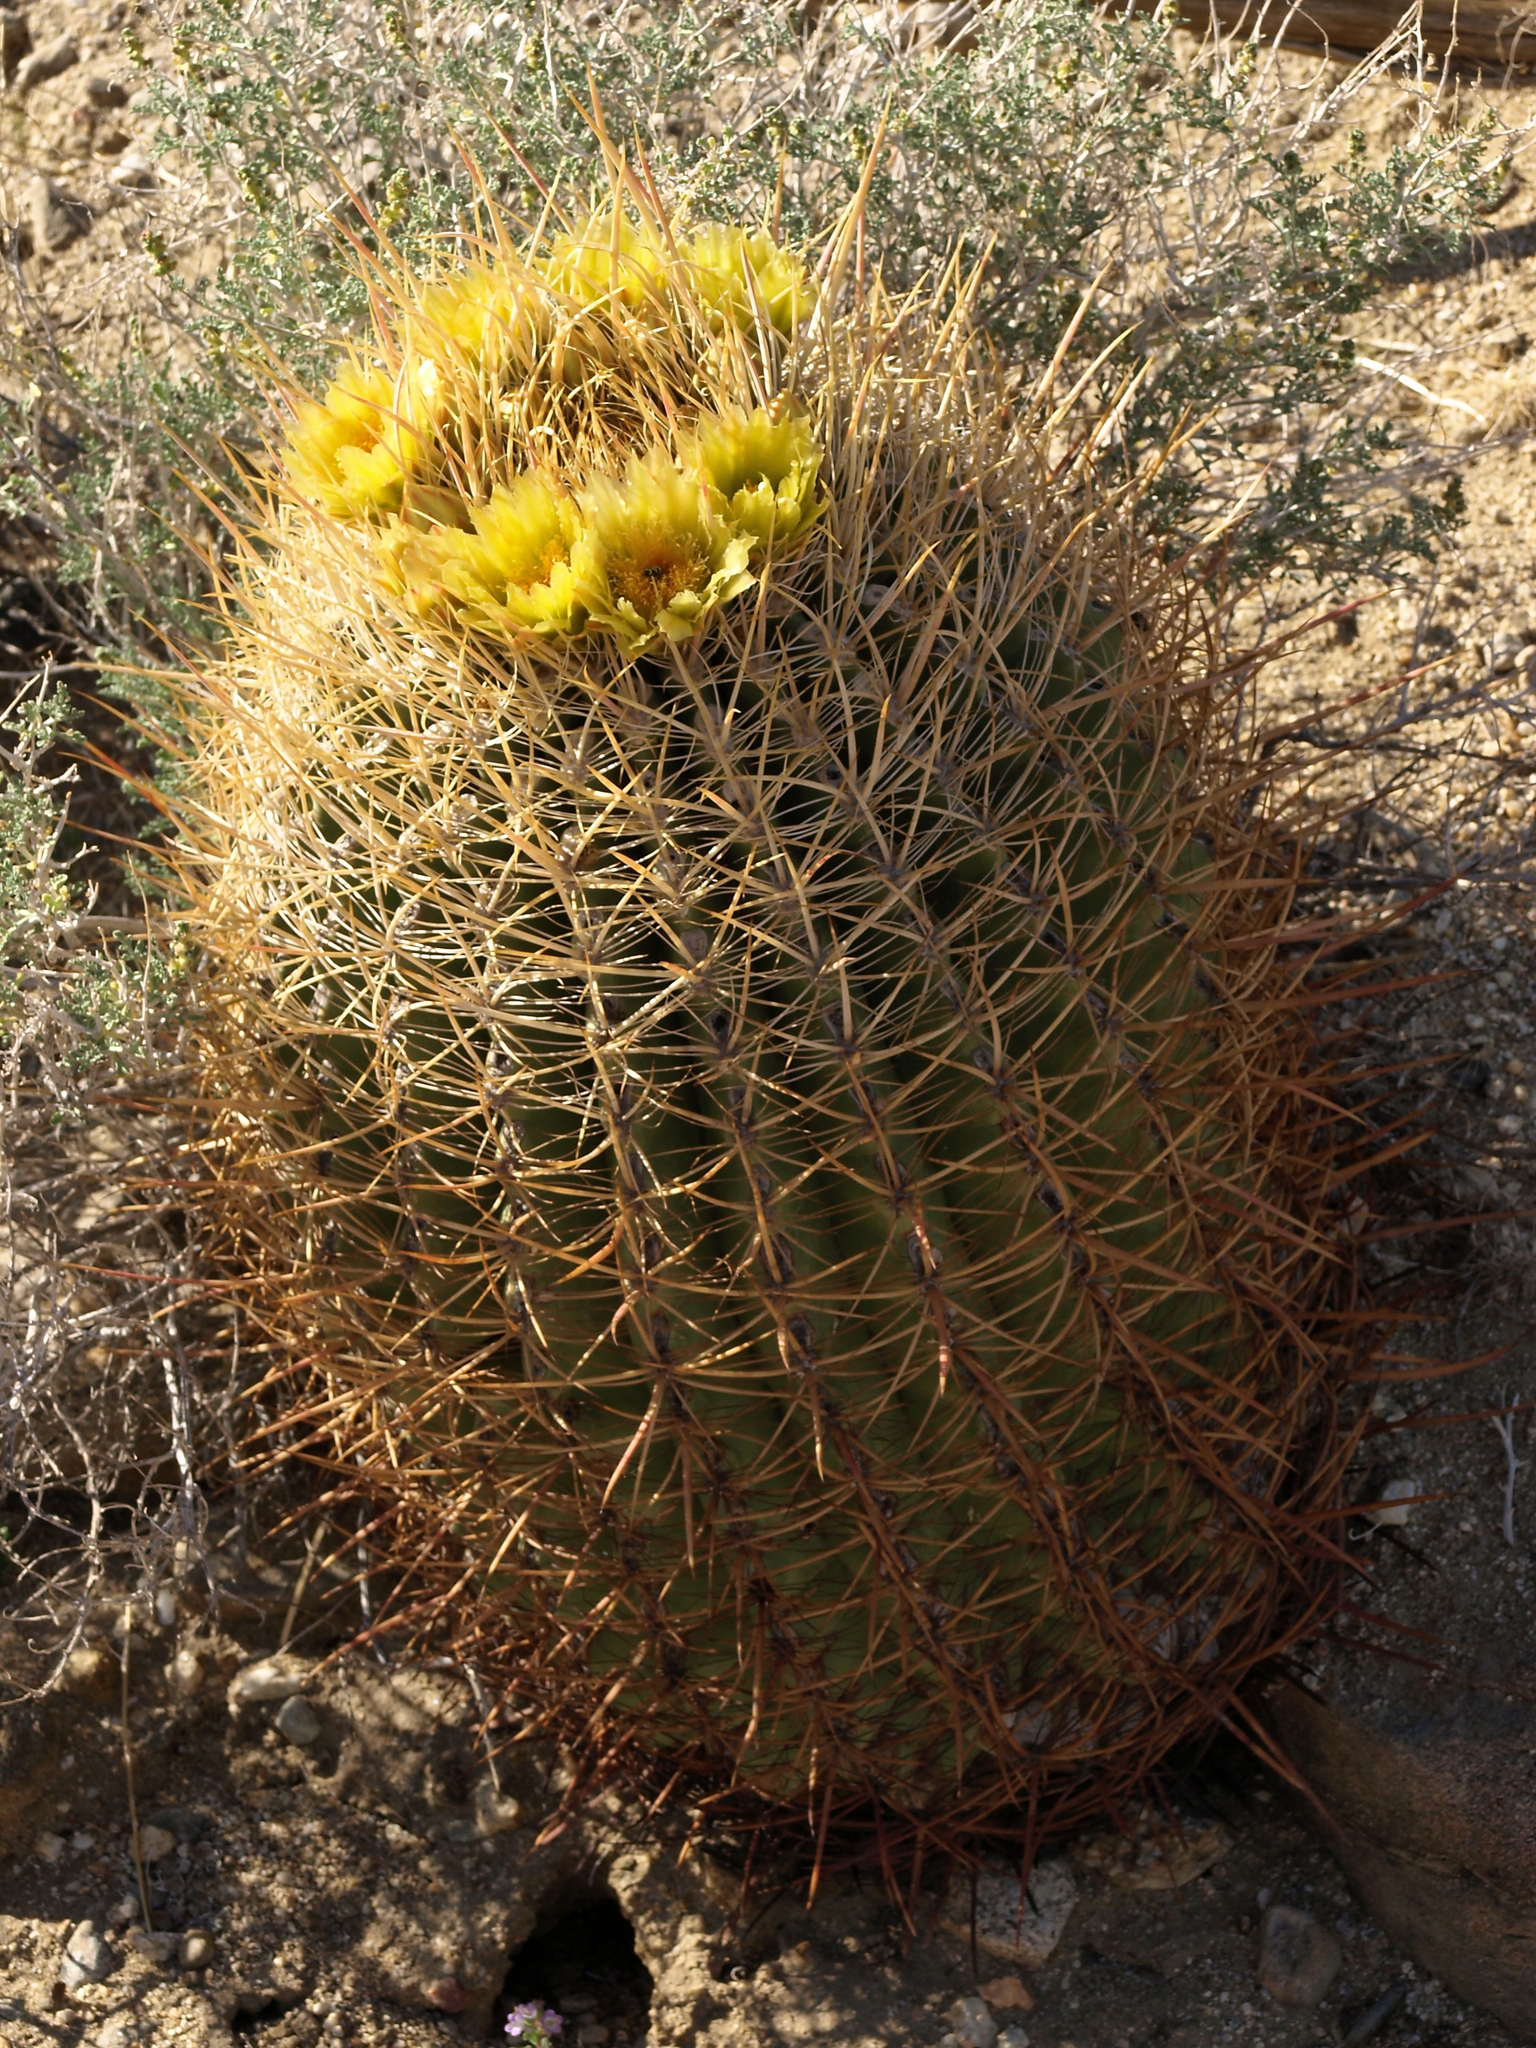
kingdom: Plantae
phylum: Tracheophyta
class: Magnoliopsida
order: Caryophyllales
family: Cactaceae
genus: Ferocactus
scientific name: Ferocactus cylindraceus
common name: California barrel cactus
